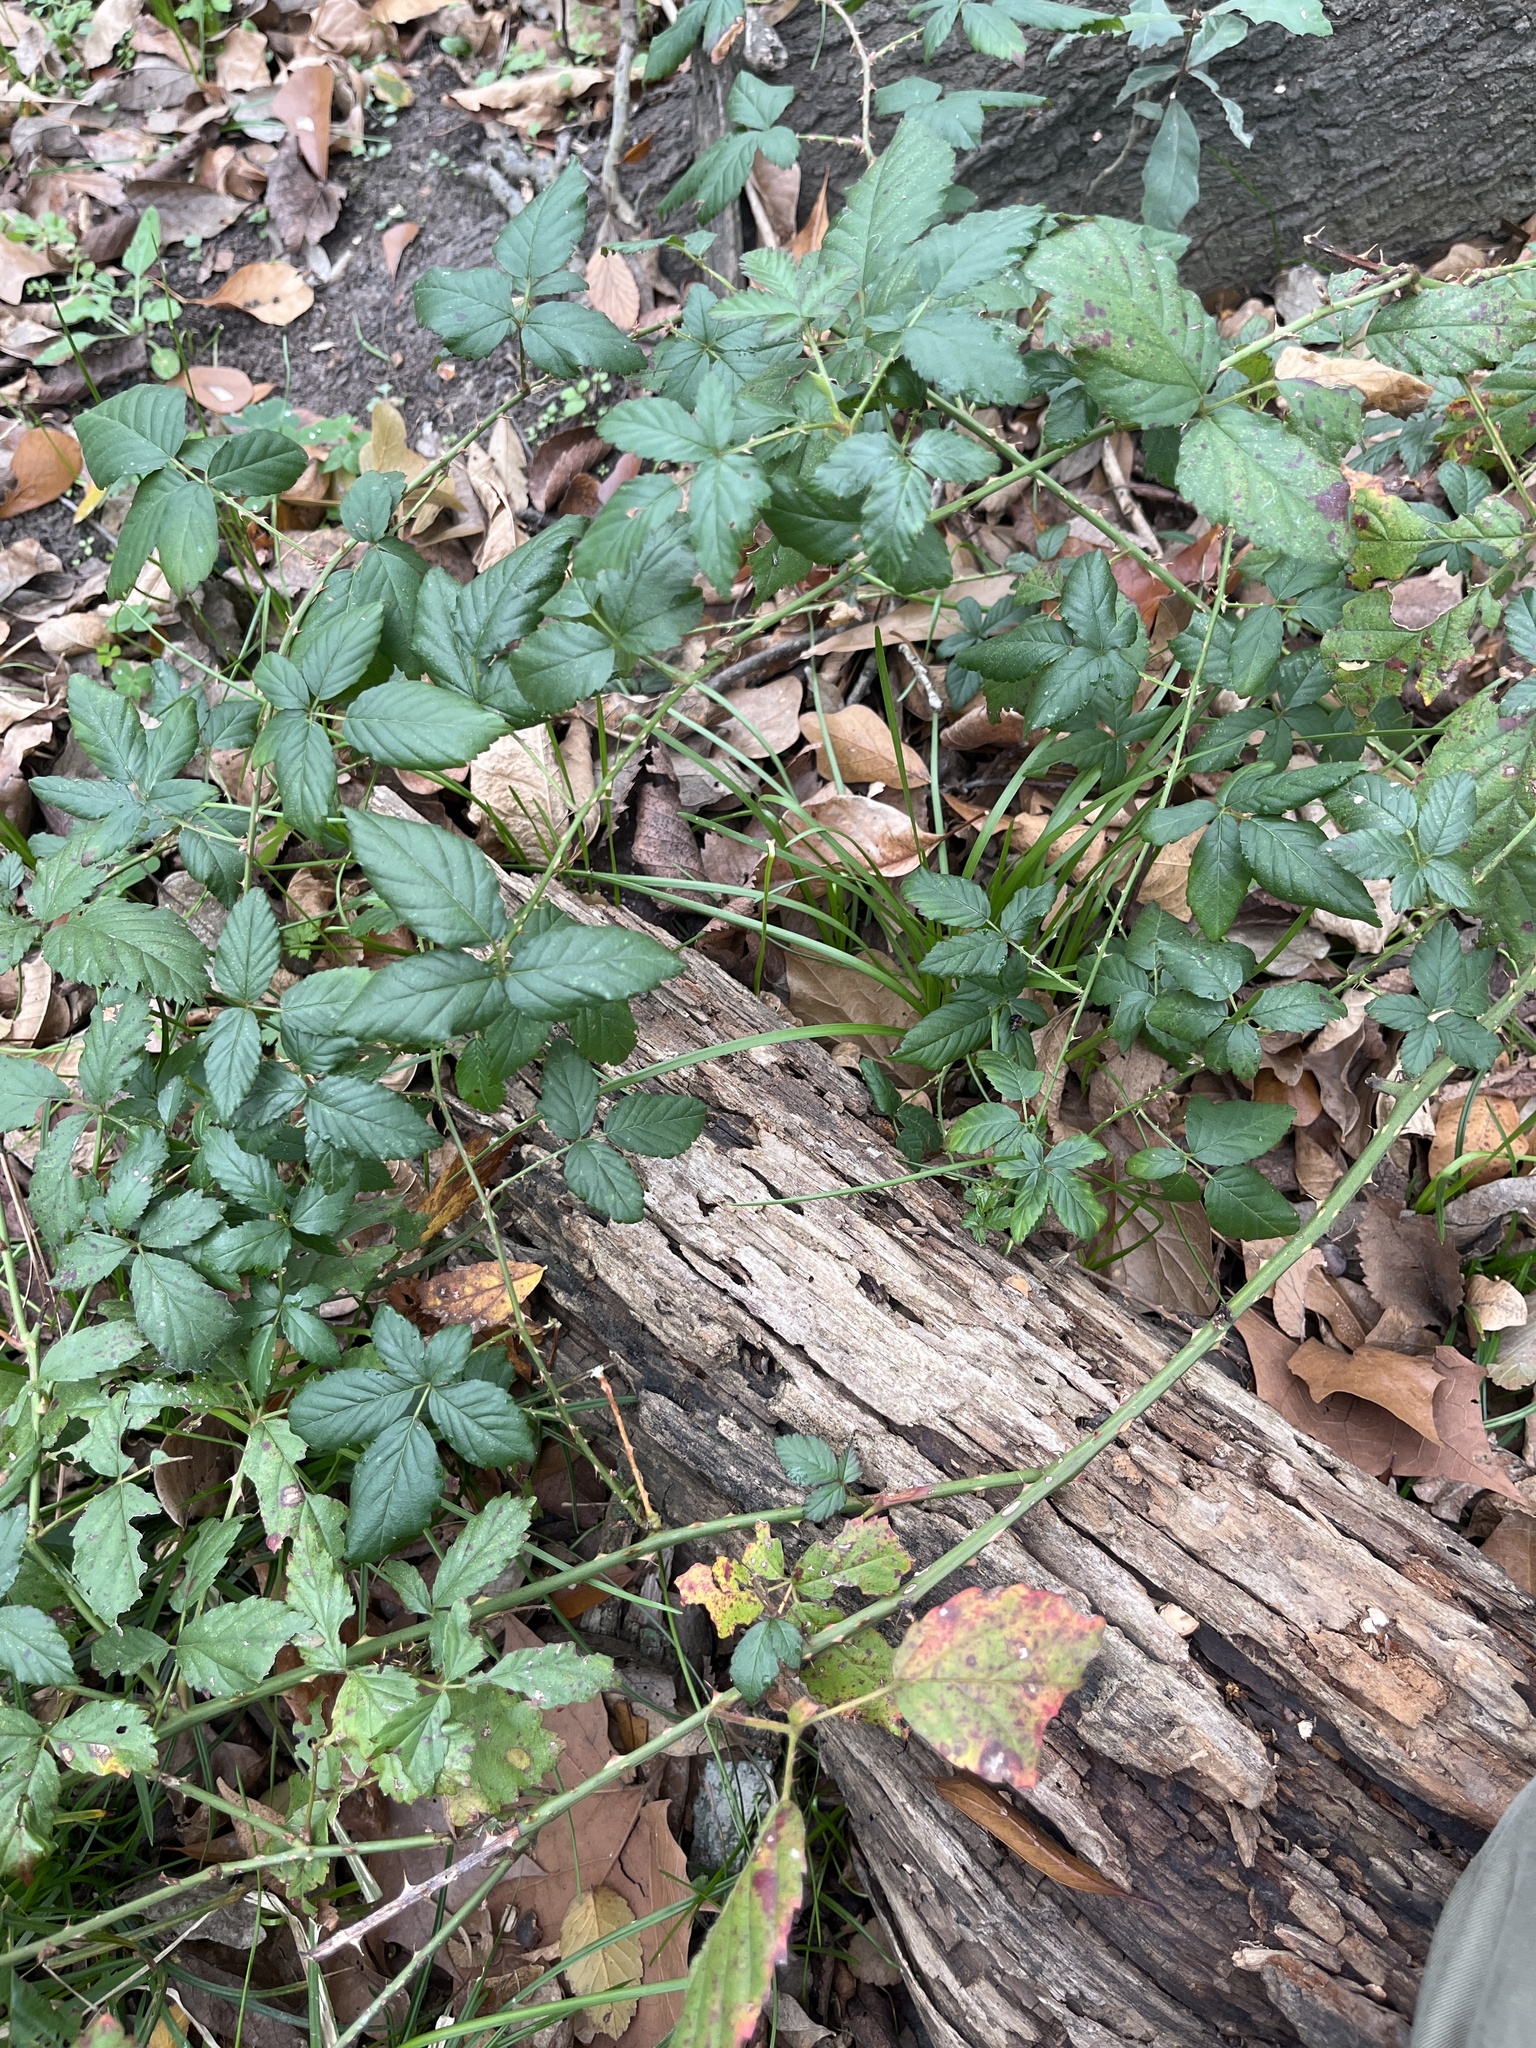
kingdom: Plantae
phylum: Tracheophyta
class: Magnoliopsida
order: Rosales
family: Rosaceae
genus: Rubus
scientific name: Rubus trivialis
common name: Southern dewberry
